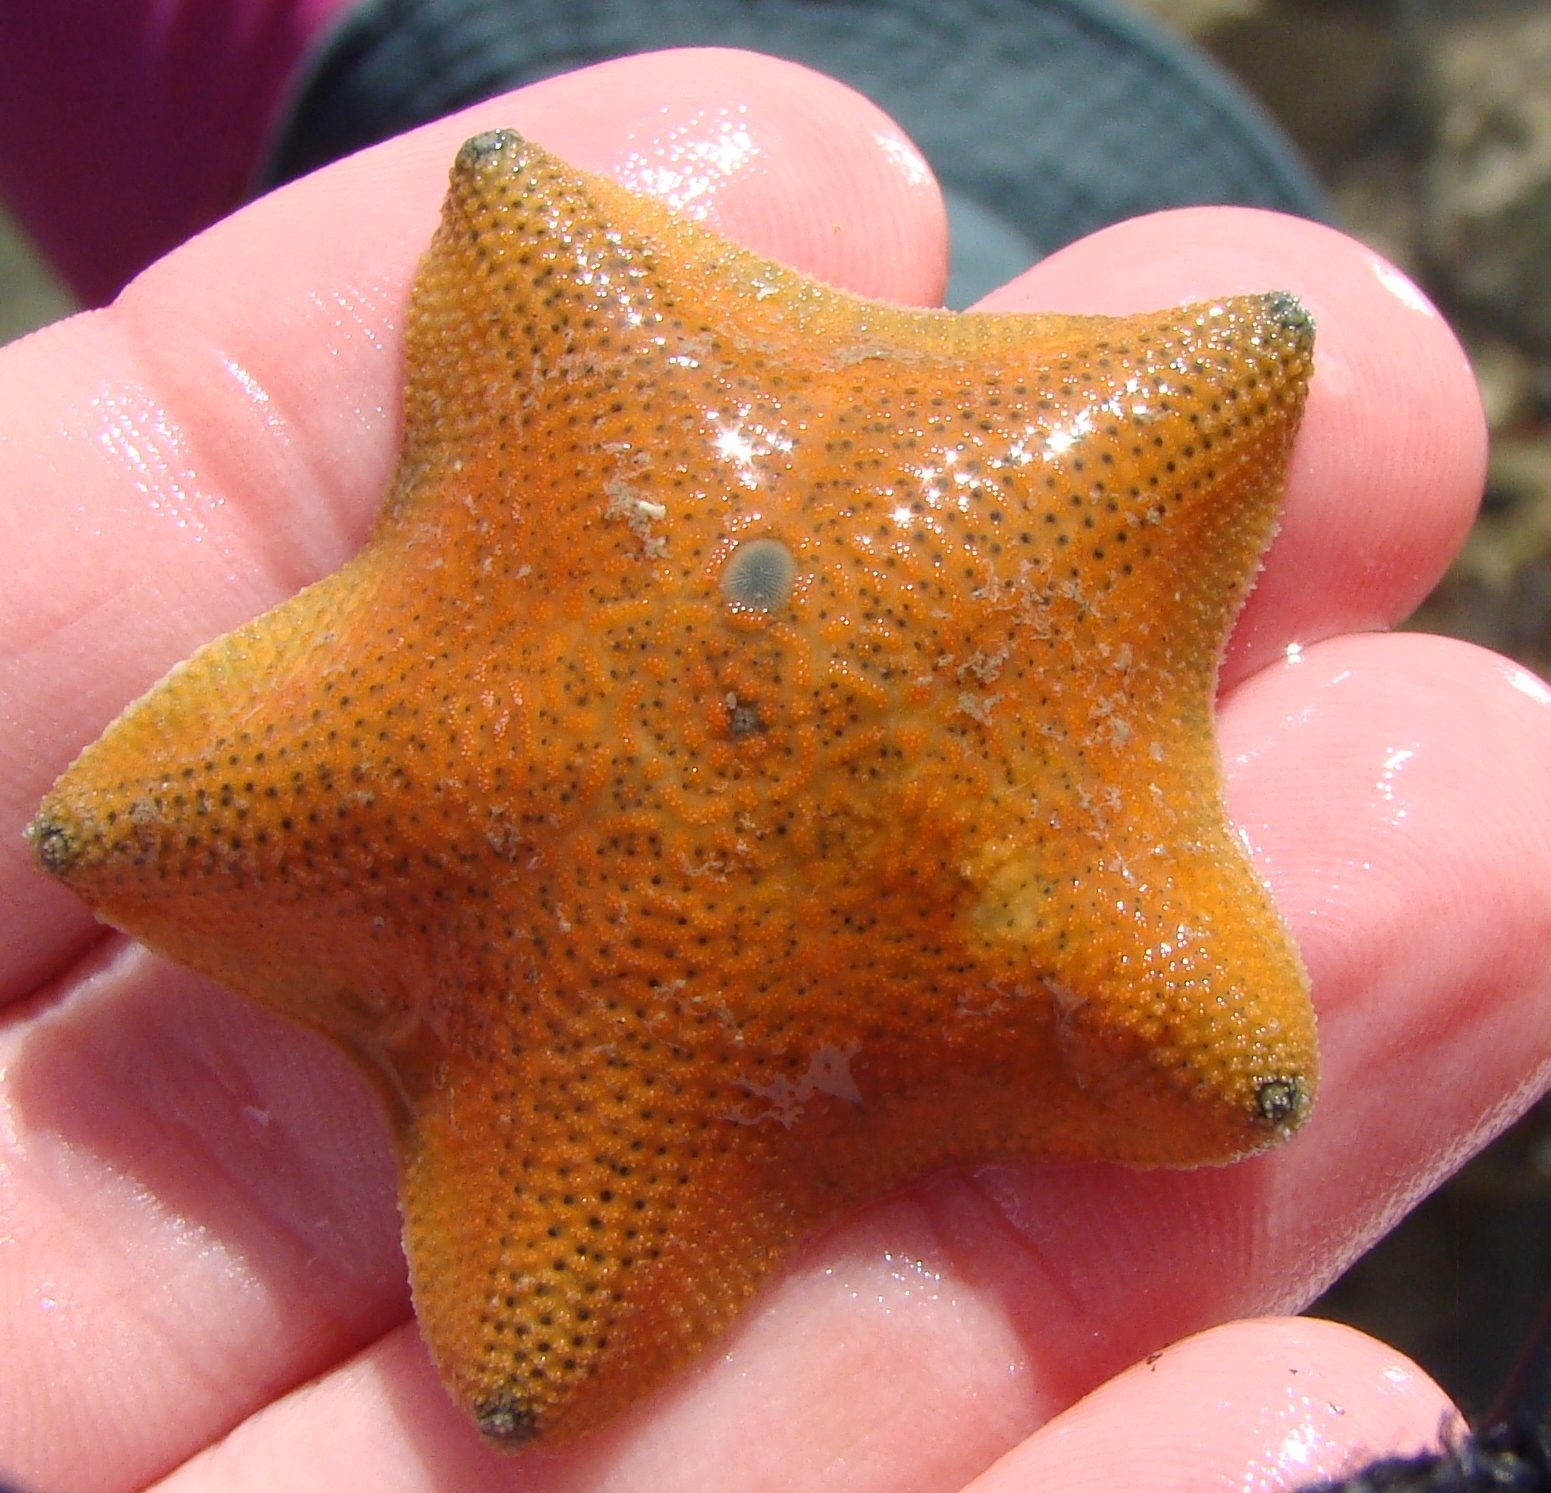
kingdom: Animalia
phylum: Echinodermata
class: Asteroidea
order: Valvatida
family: Asterinidae
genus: Patiriella
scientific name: Patiriella regularis
